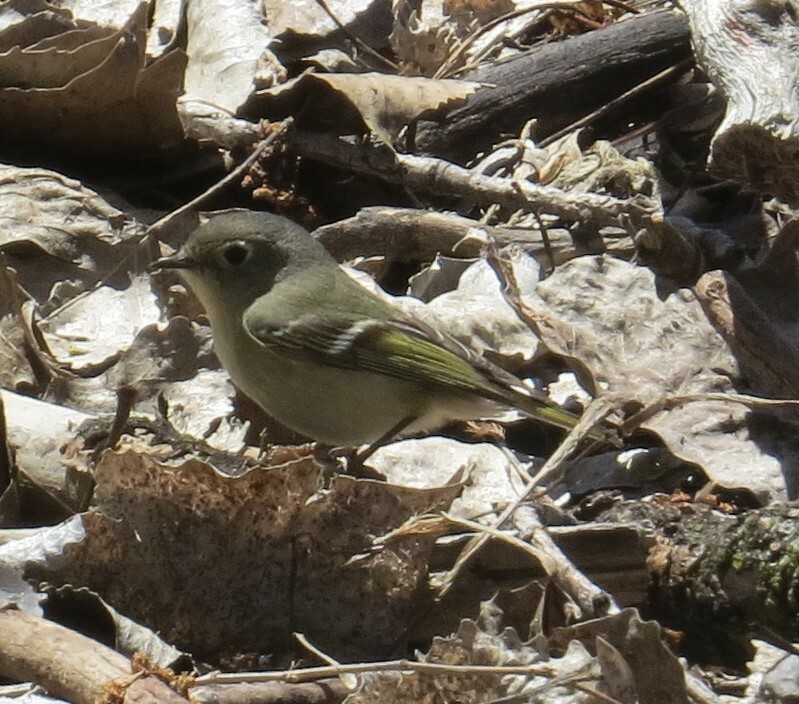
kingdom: Animalia
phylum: Chordata
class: Aves
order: Passeriformes
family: Regulidae
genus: Regulus
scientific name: Regulus calendula
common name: Ruby-crowned kinglet
